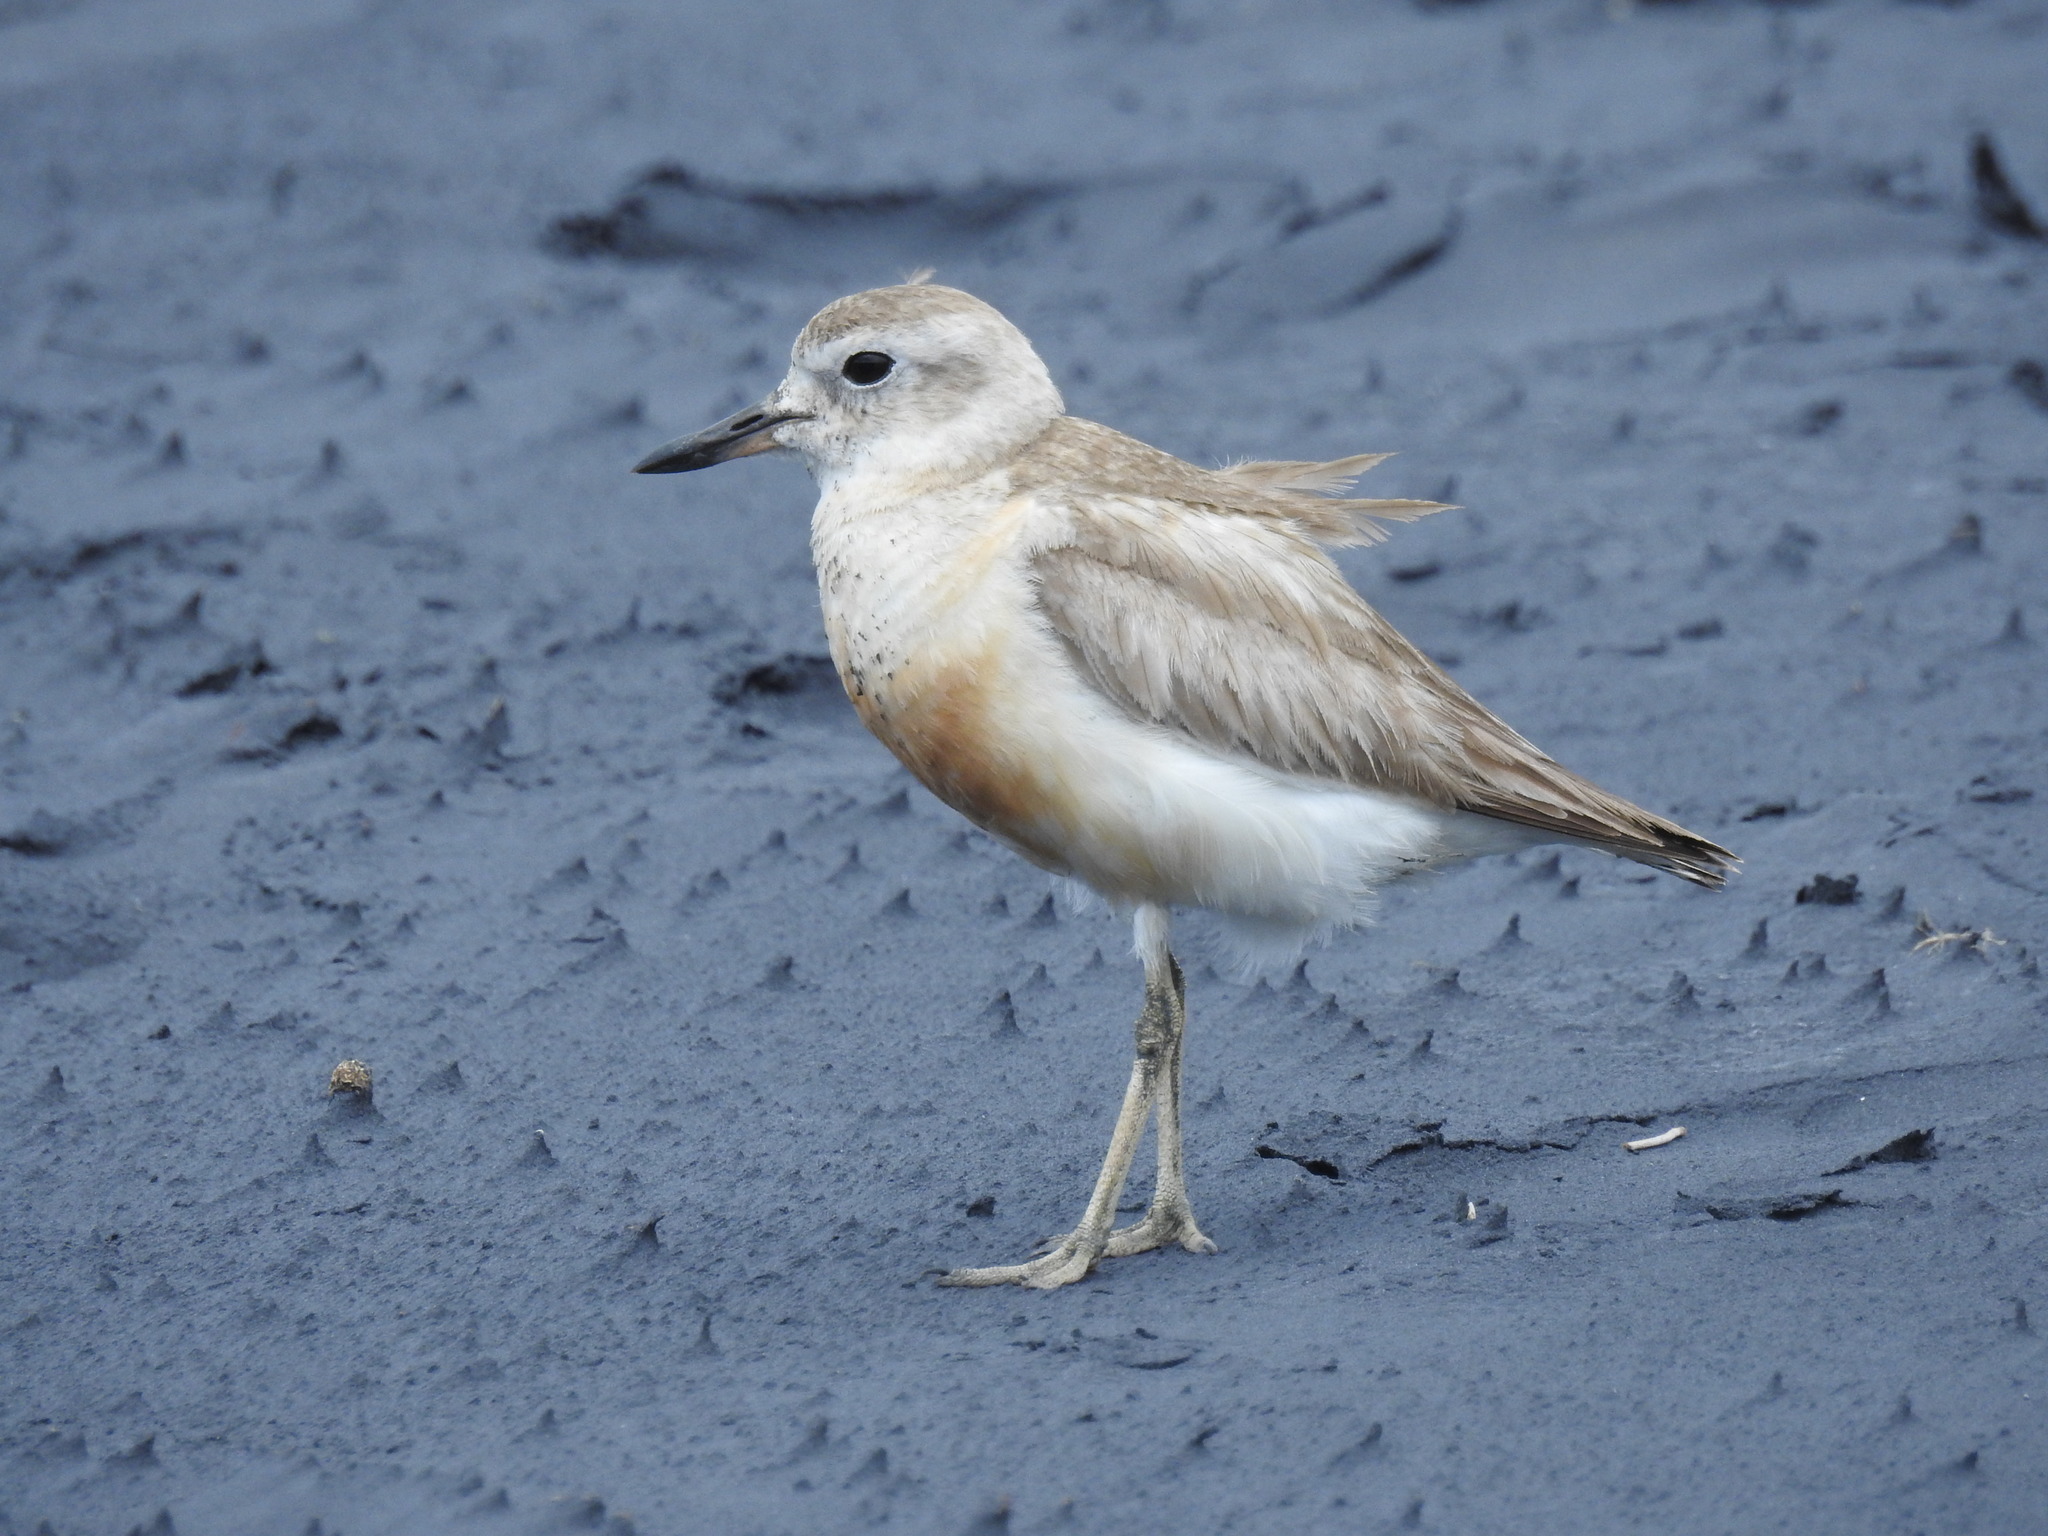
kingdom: Animalia
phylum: Chordata
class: Aves
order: Charadriiformes
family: Charadriidae
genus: Anarhynchus
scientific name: Anarhynchus
